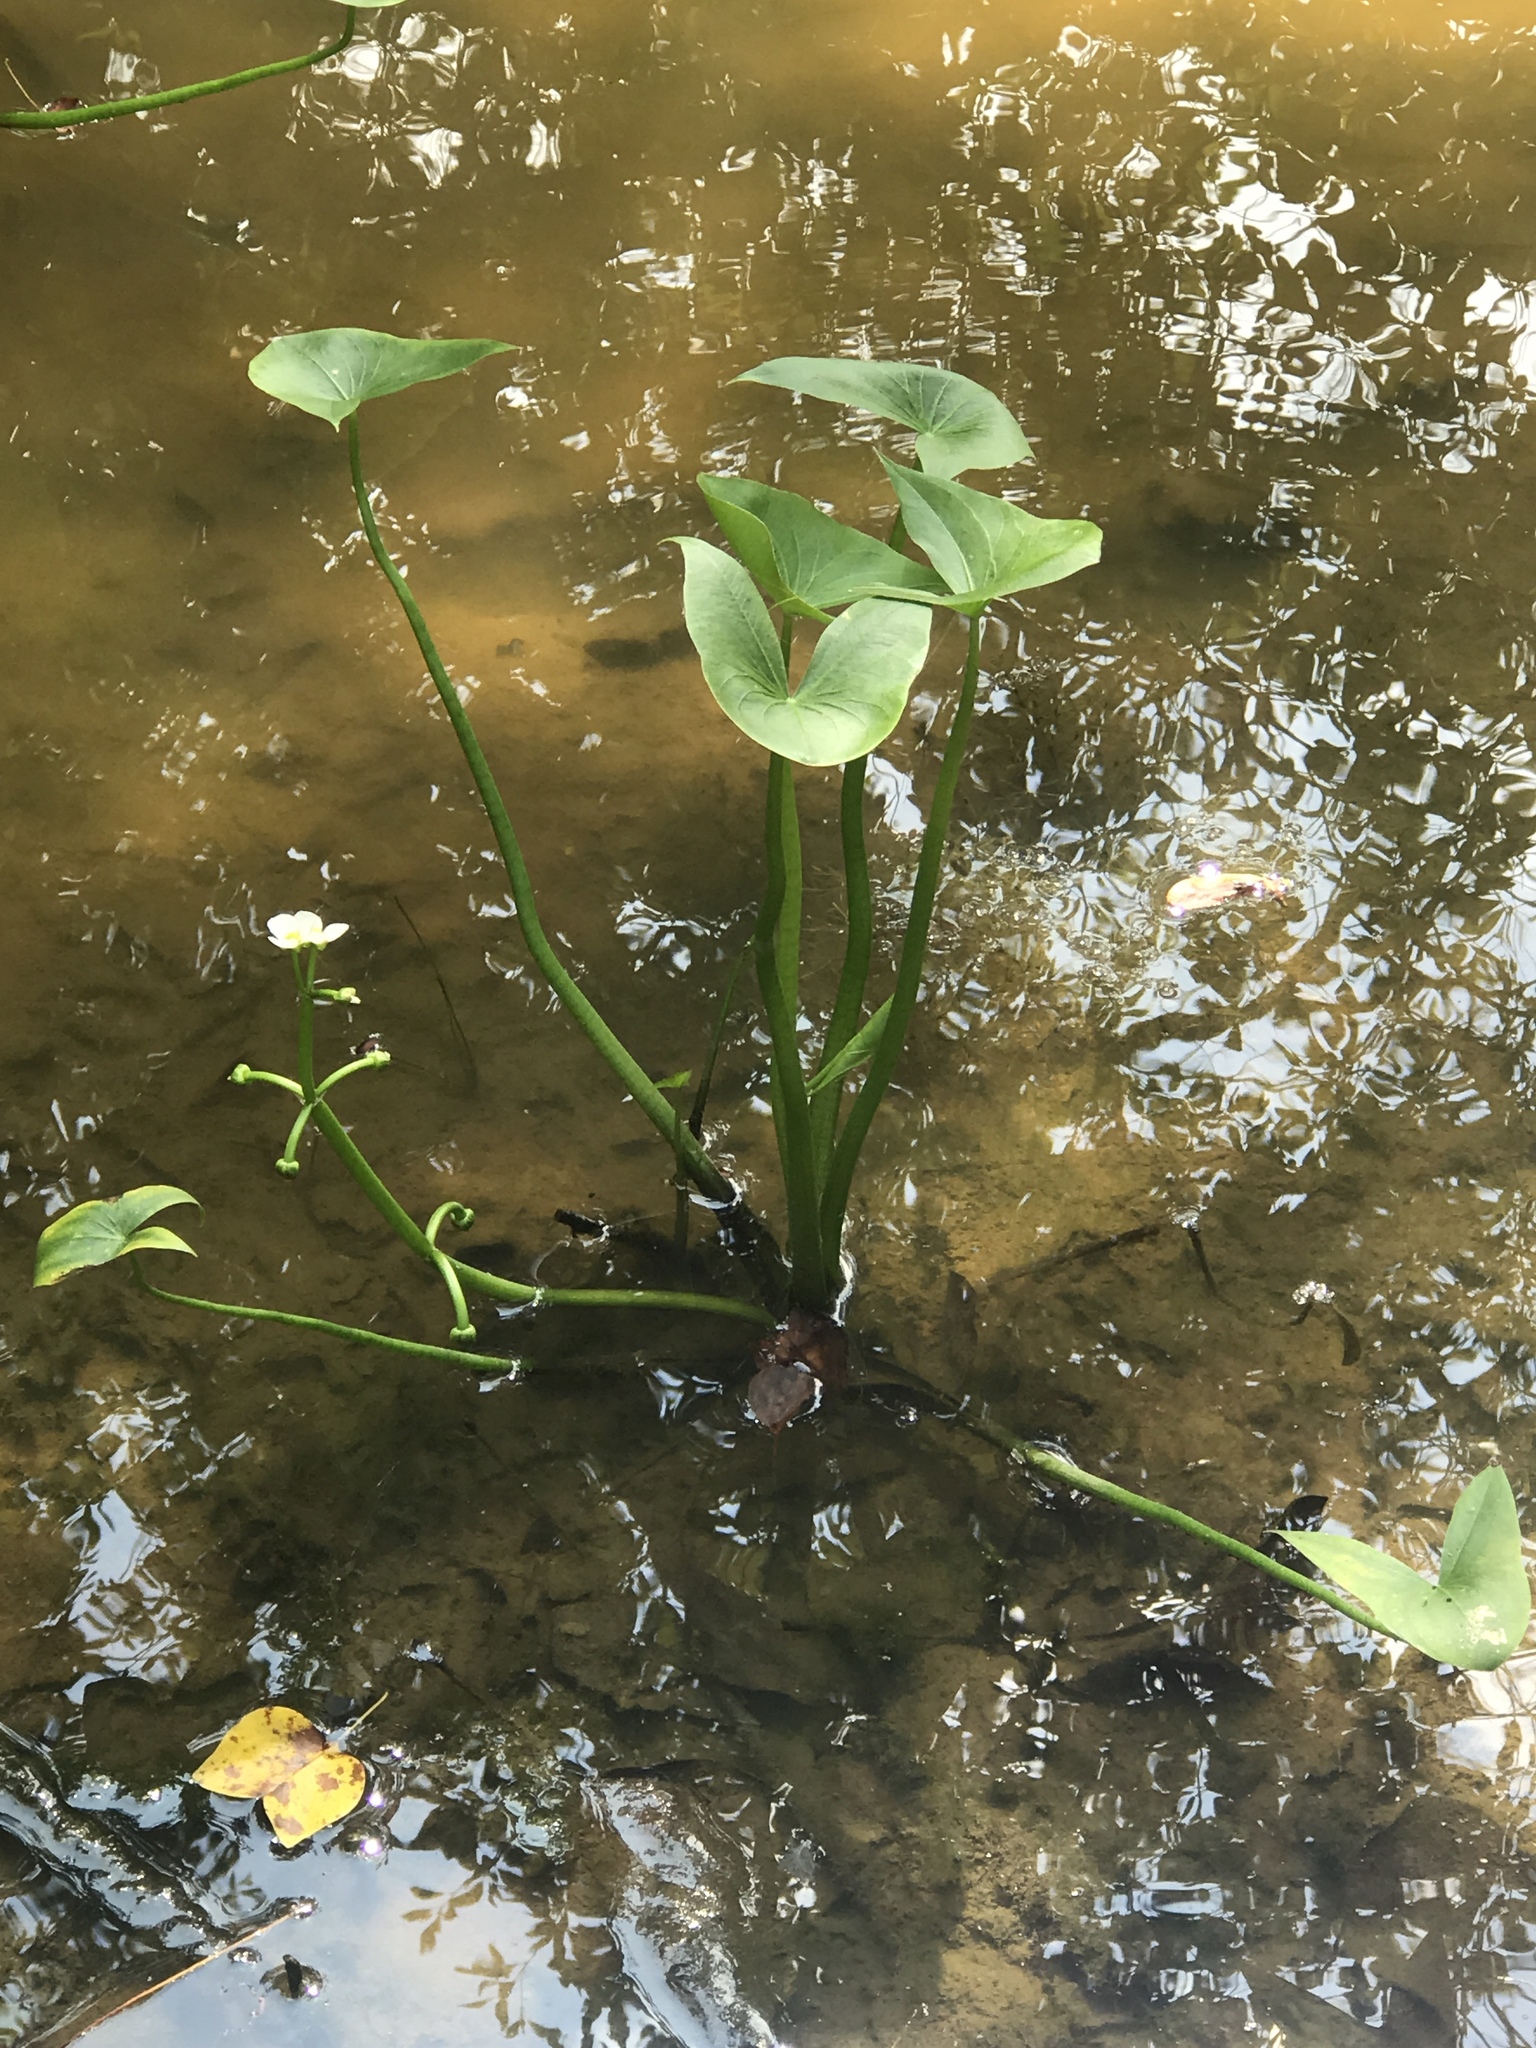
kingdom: Plantae
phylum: Tracheophyta
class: Liliopsida
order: Alismatales
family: Alismataceae
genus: Sagittaria
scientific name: Sagittaria calycina
